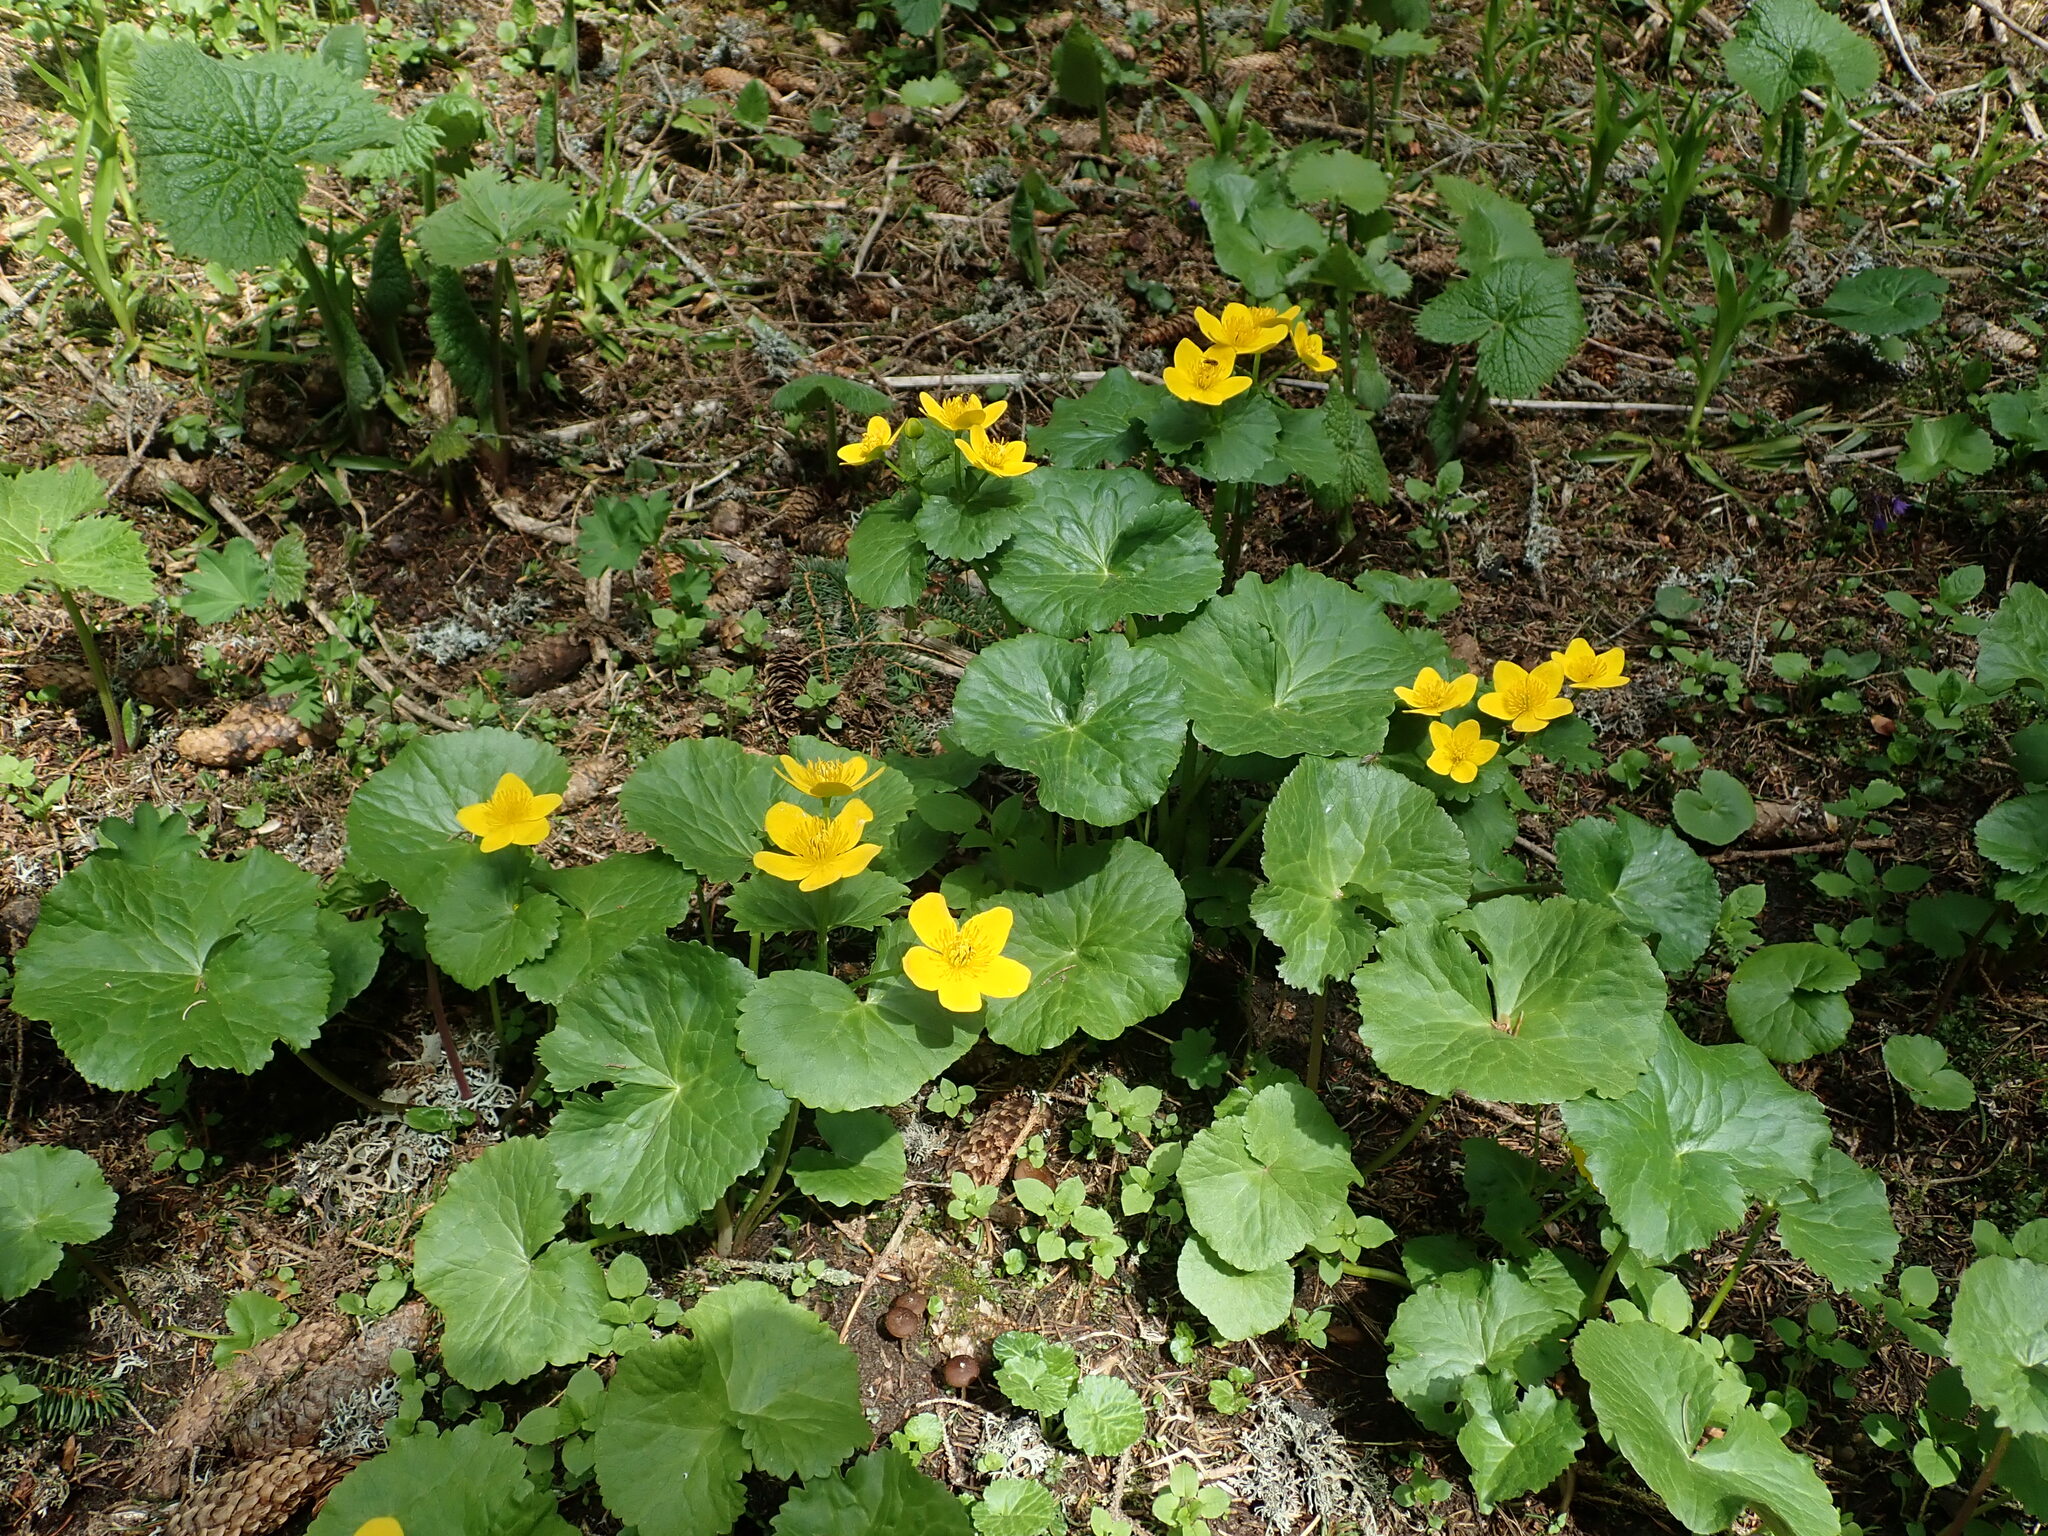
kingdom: Plantae
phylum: Tracheophyta
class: Magnoliopsida
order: Ranunculales
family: Ranunculaceae
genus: Caltha
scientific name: Caltha palustris
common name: Marsh marigold
